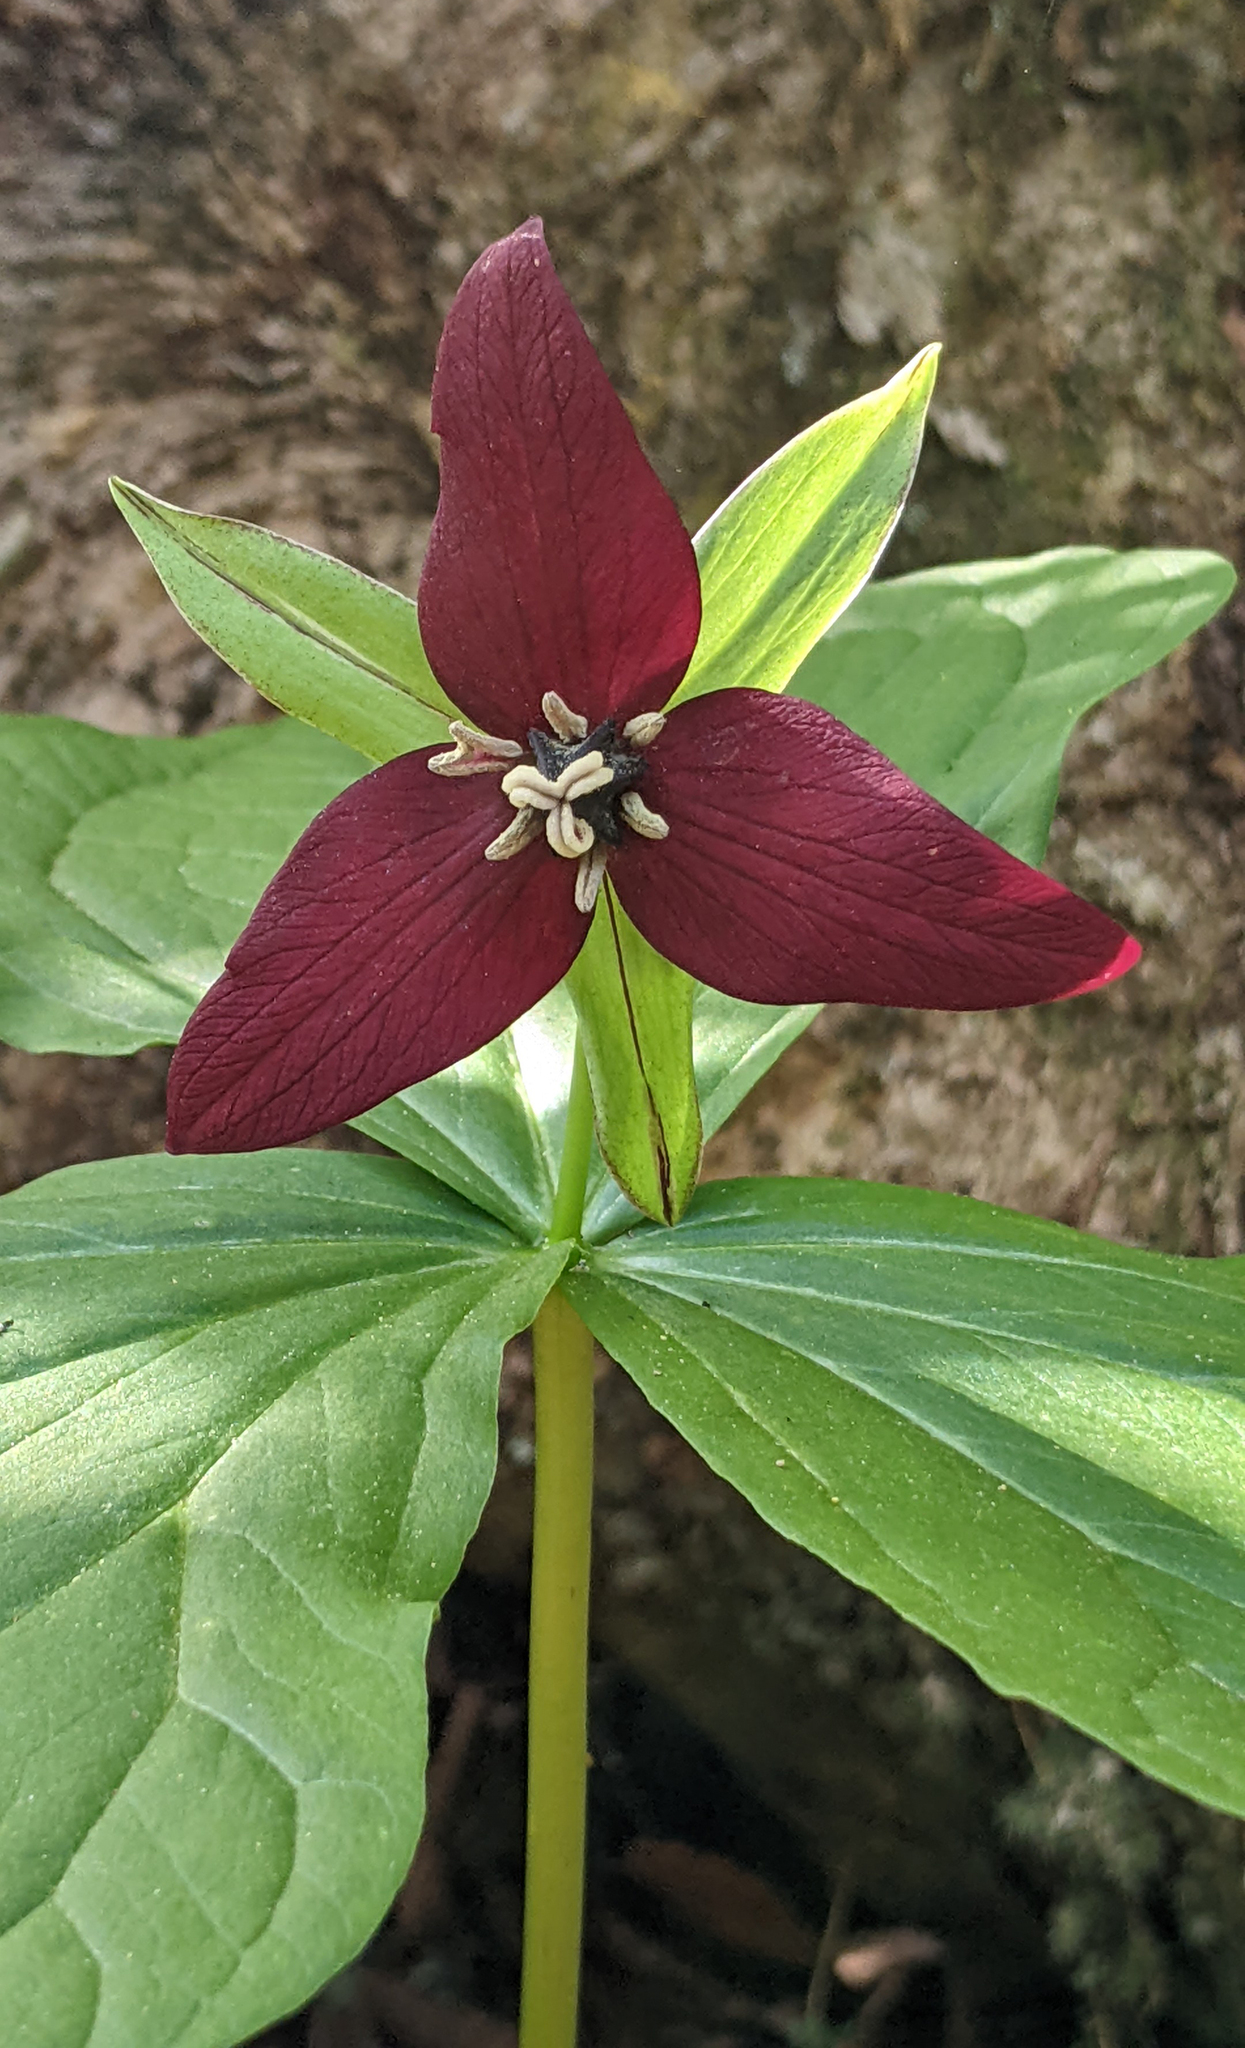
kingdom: Plantae
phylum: Tracheophyta
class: Liliopsida
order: Liliales
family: Melanthiaceae
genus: Trillium
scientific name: Trillium erectum
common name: Purple trillium
